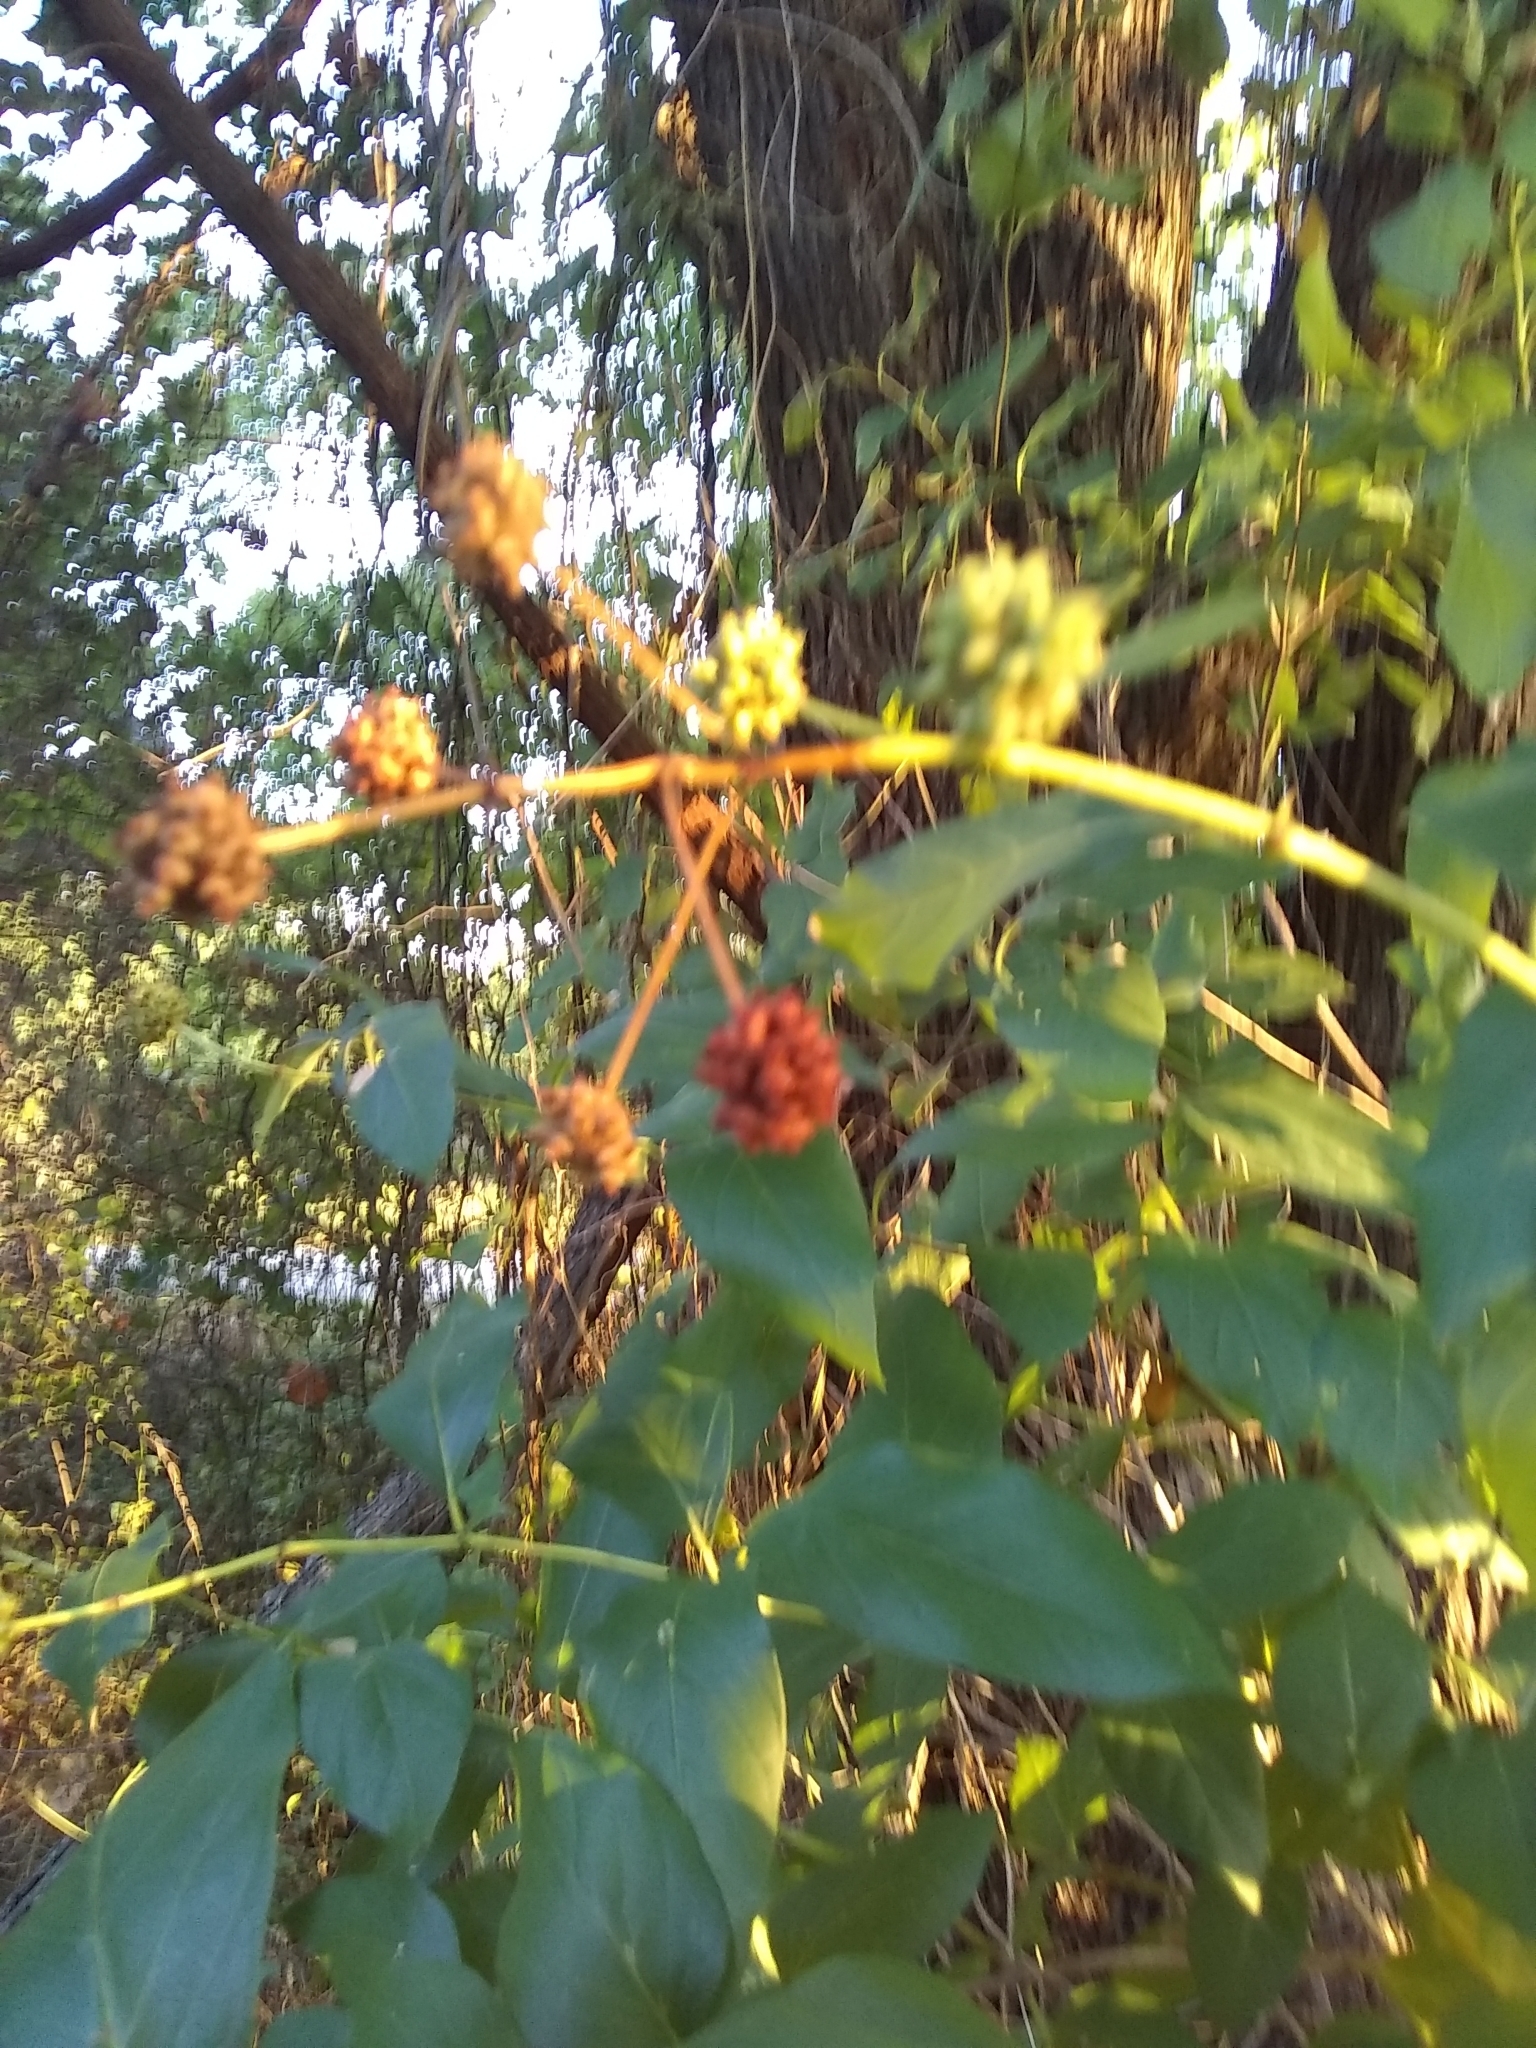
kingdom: Plantae
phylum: Tracheophyta
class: Magnoliopsida
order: Gentianales
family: Rubiaceae
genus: Cephalanthus
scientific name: Cephalanthus occidentalis
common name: Button-willow
